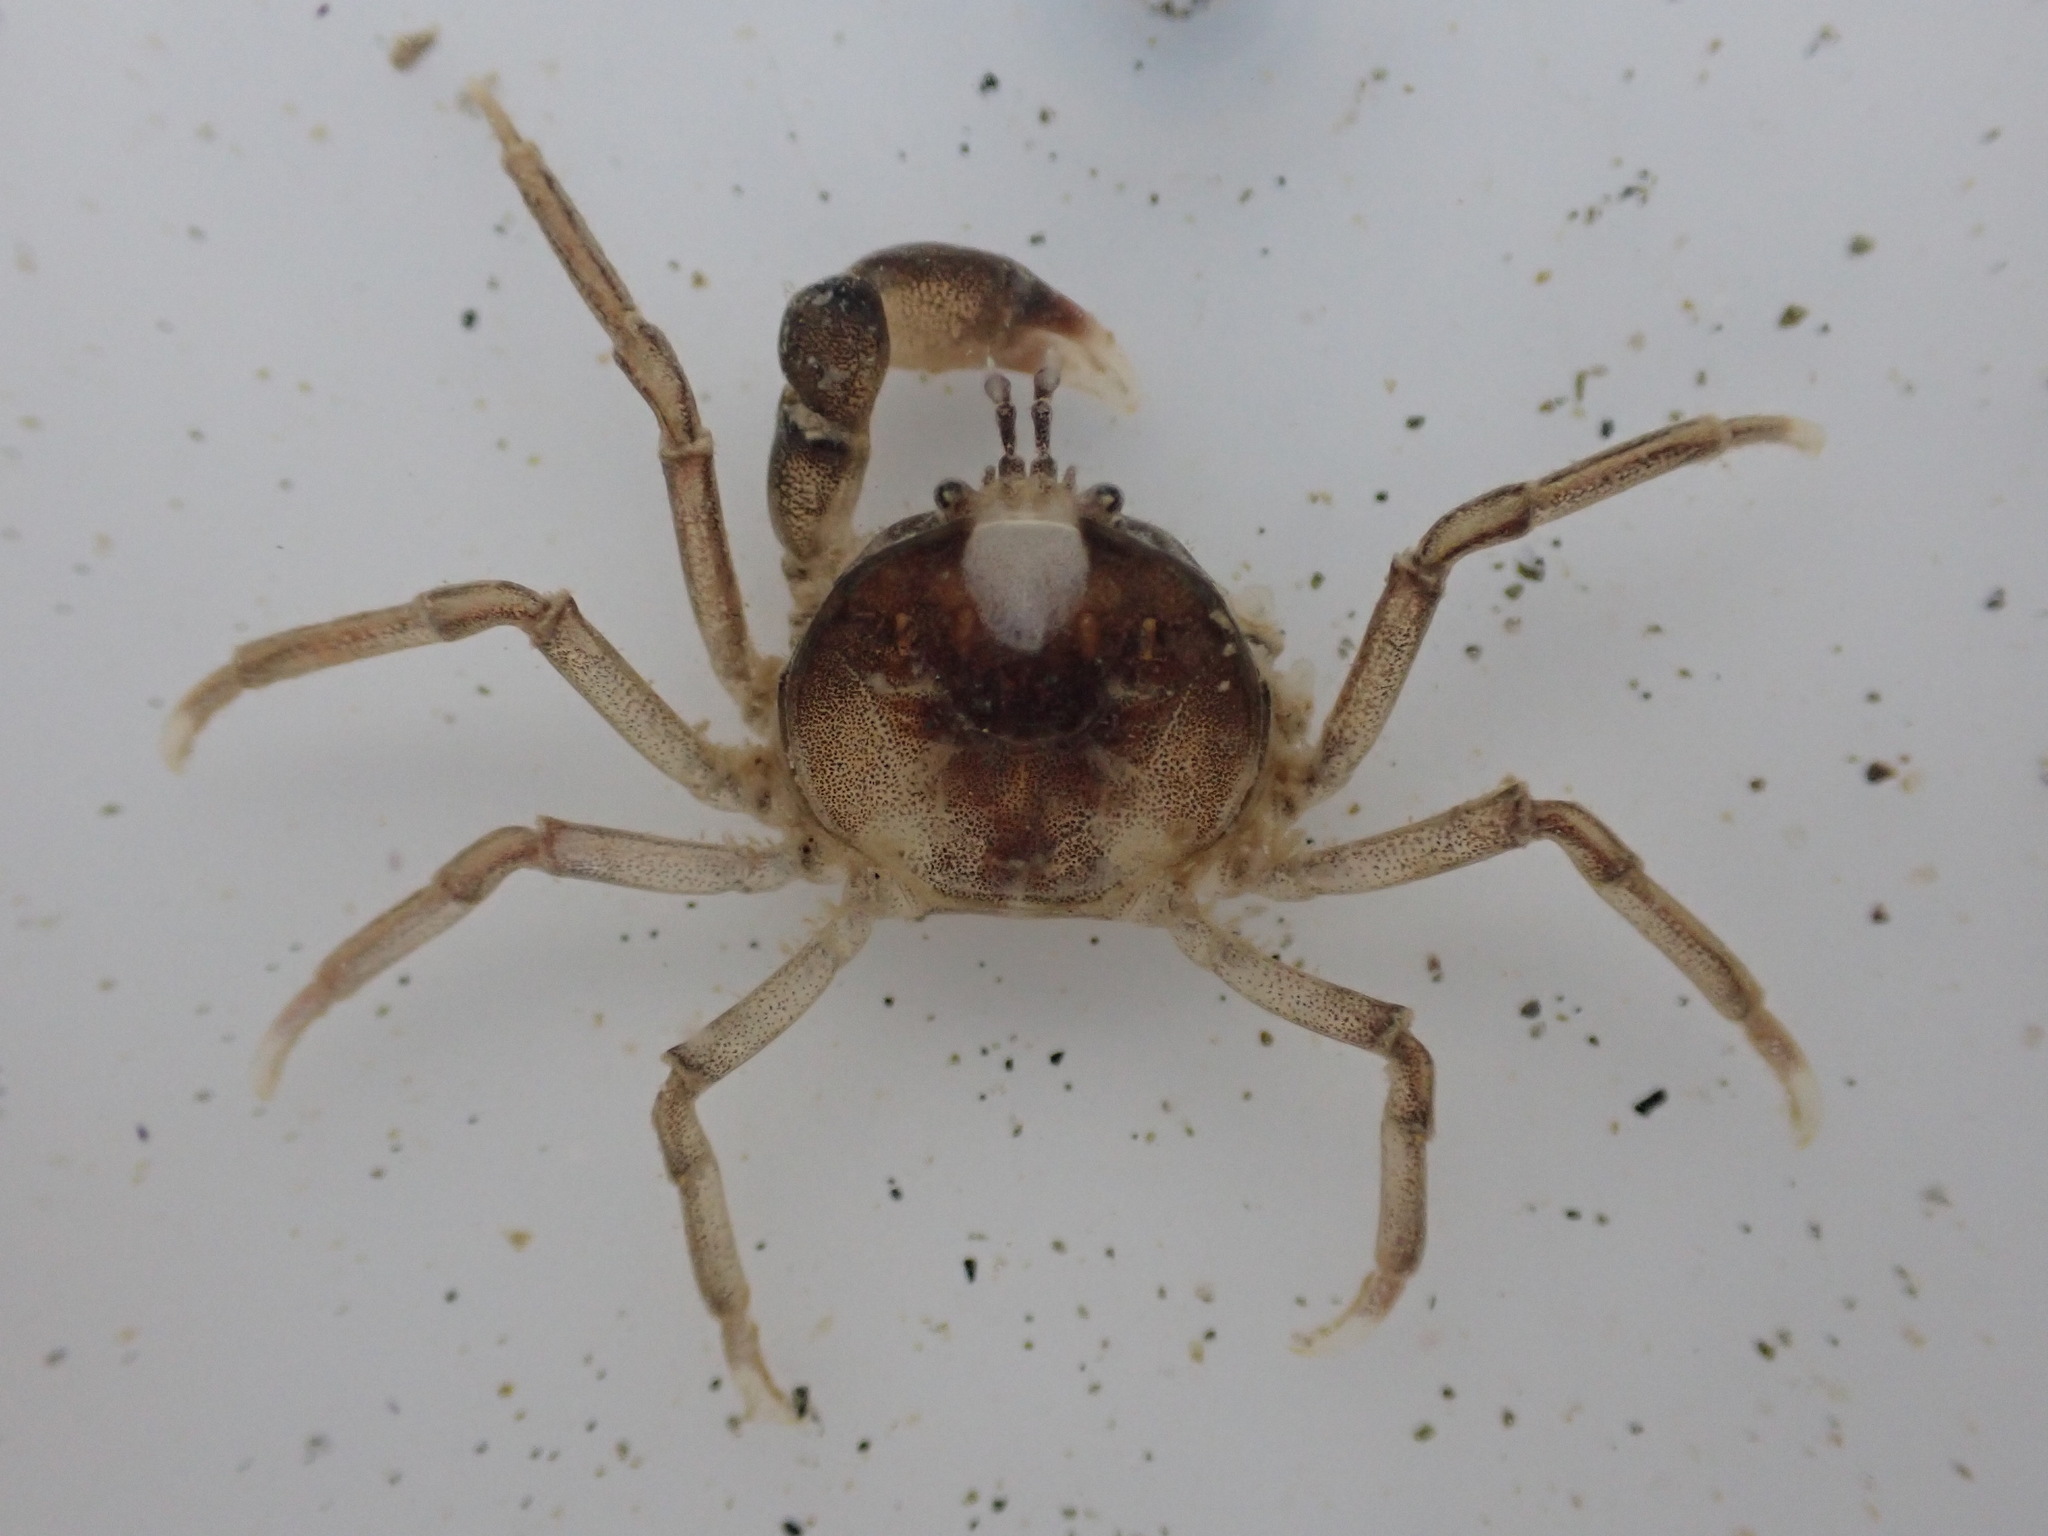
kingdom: Animalia
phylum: Arthropoda
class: Malacostraca
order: Decapoda
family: Hymenosomatidae
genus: Halicarcinus
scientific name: Halicarcinus quoyi
